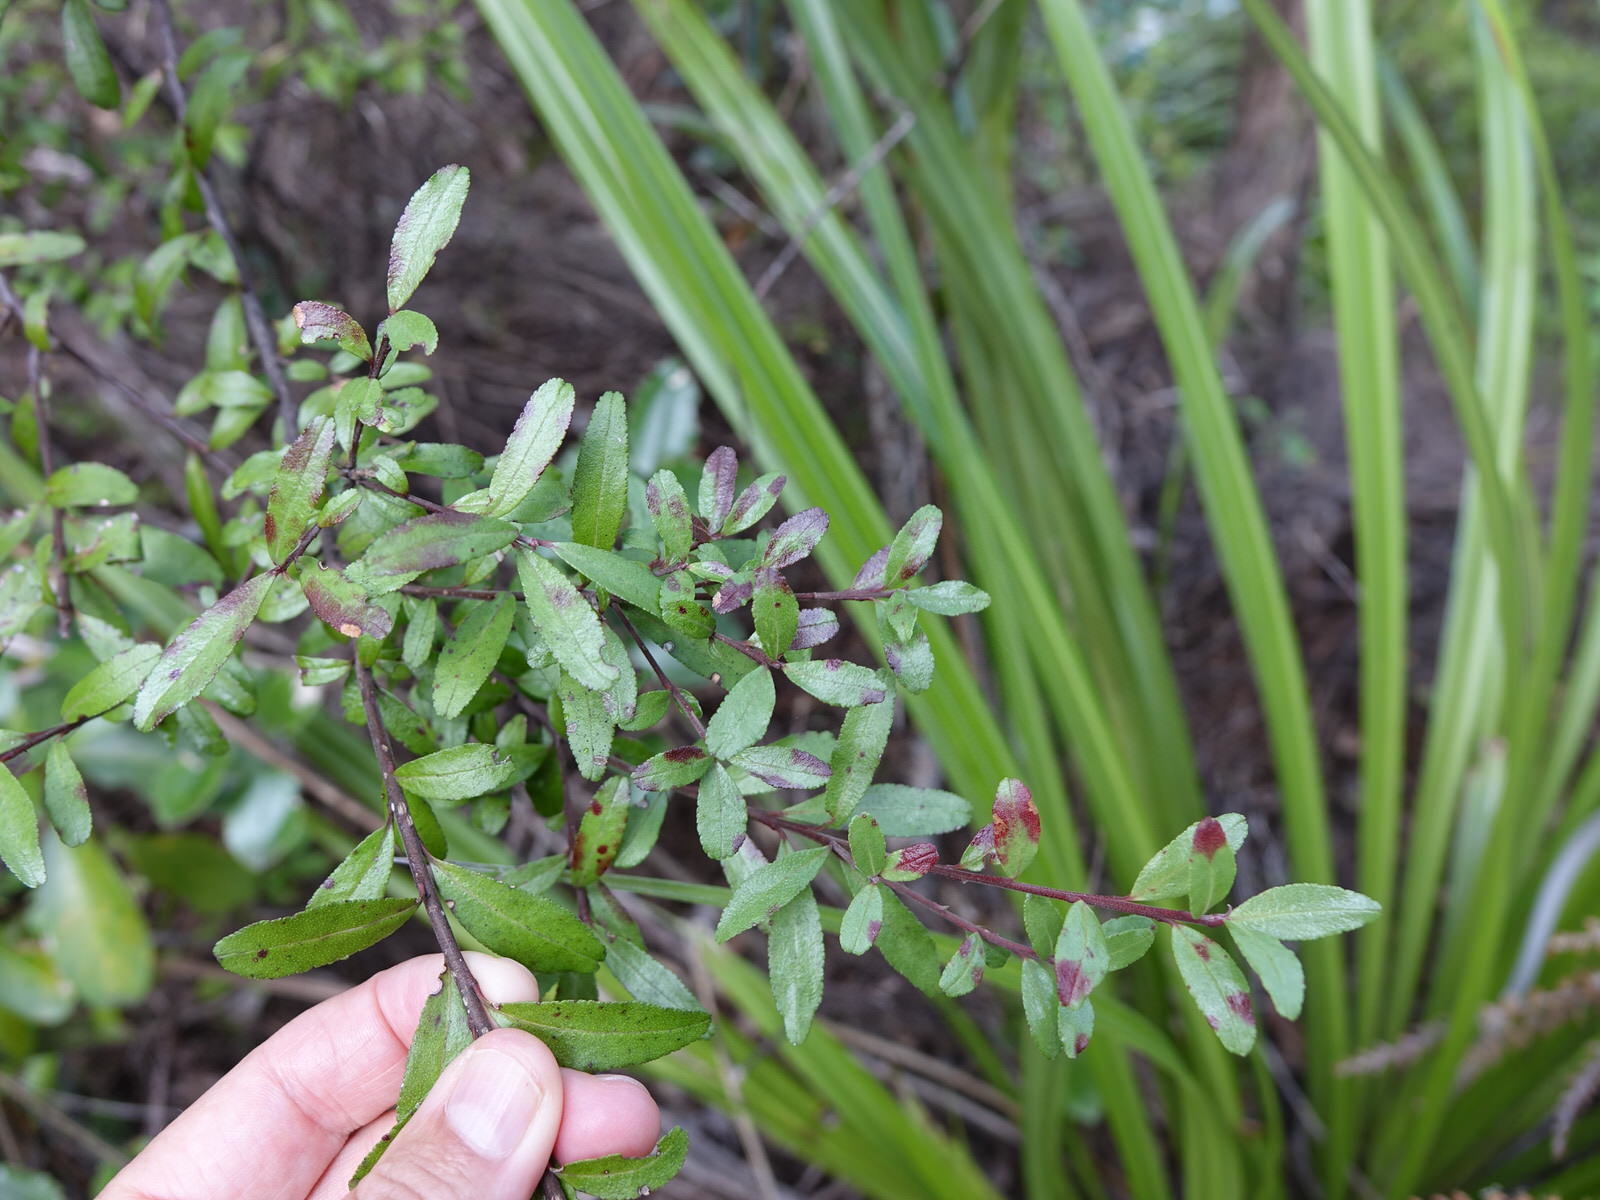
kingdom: Plantae
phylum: Tracheophyta
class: Magnoliopsida
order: Sapindales
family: Rutaceae
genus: Leionema
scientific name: Leionema nudum
